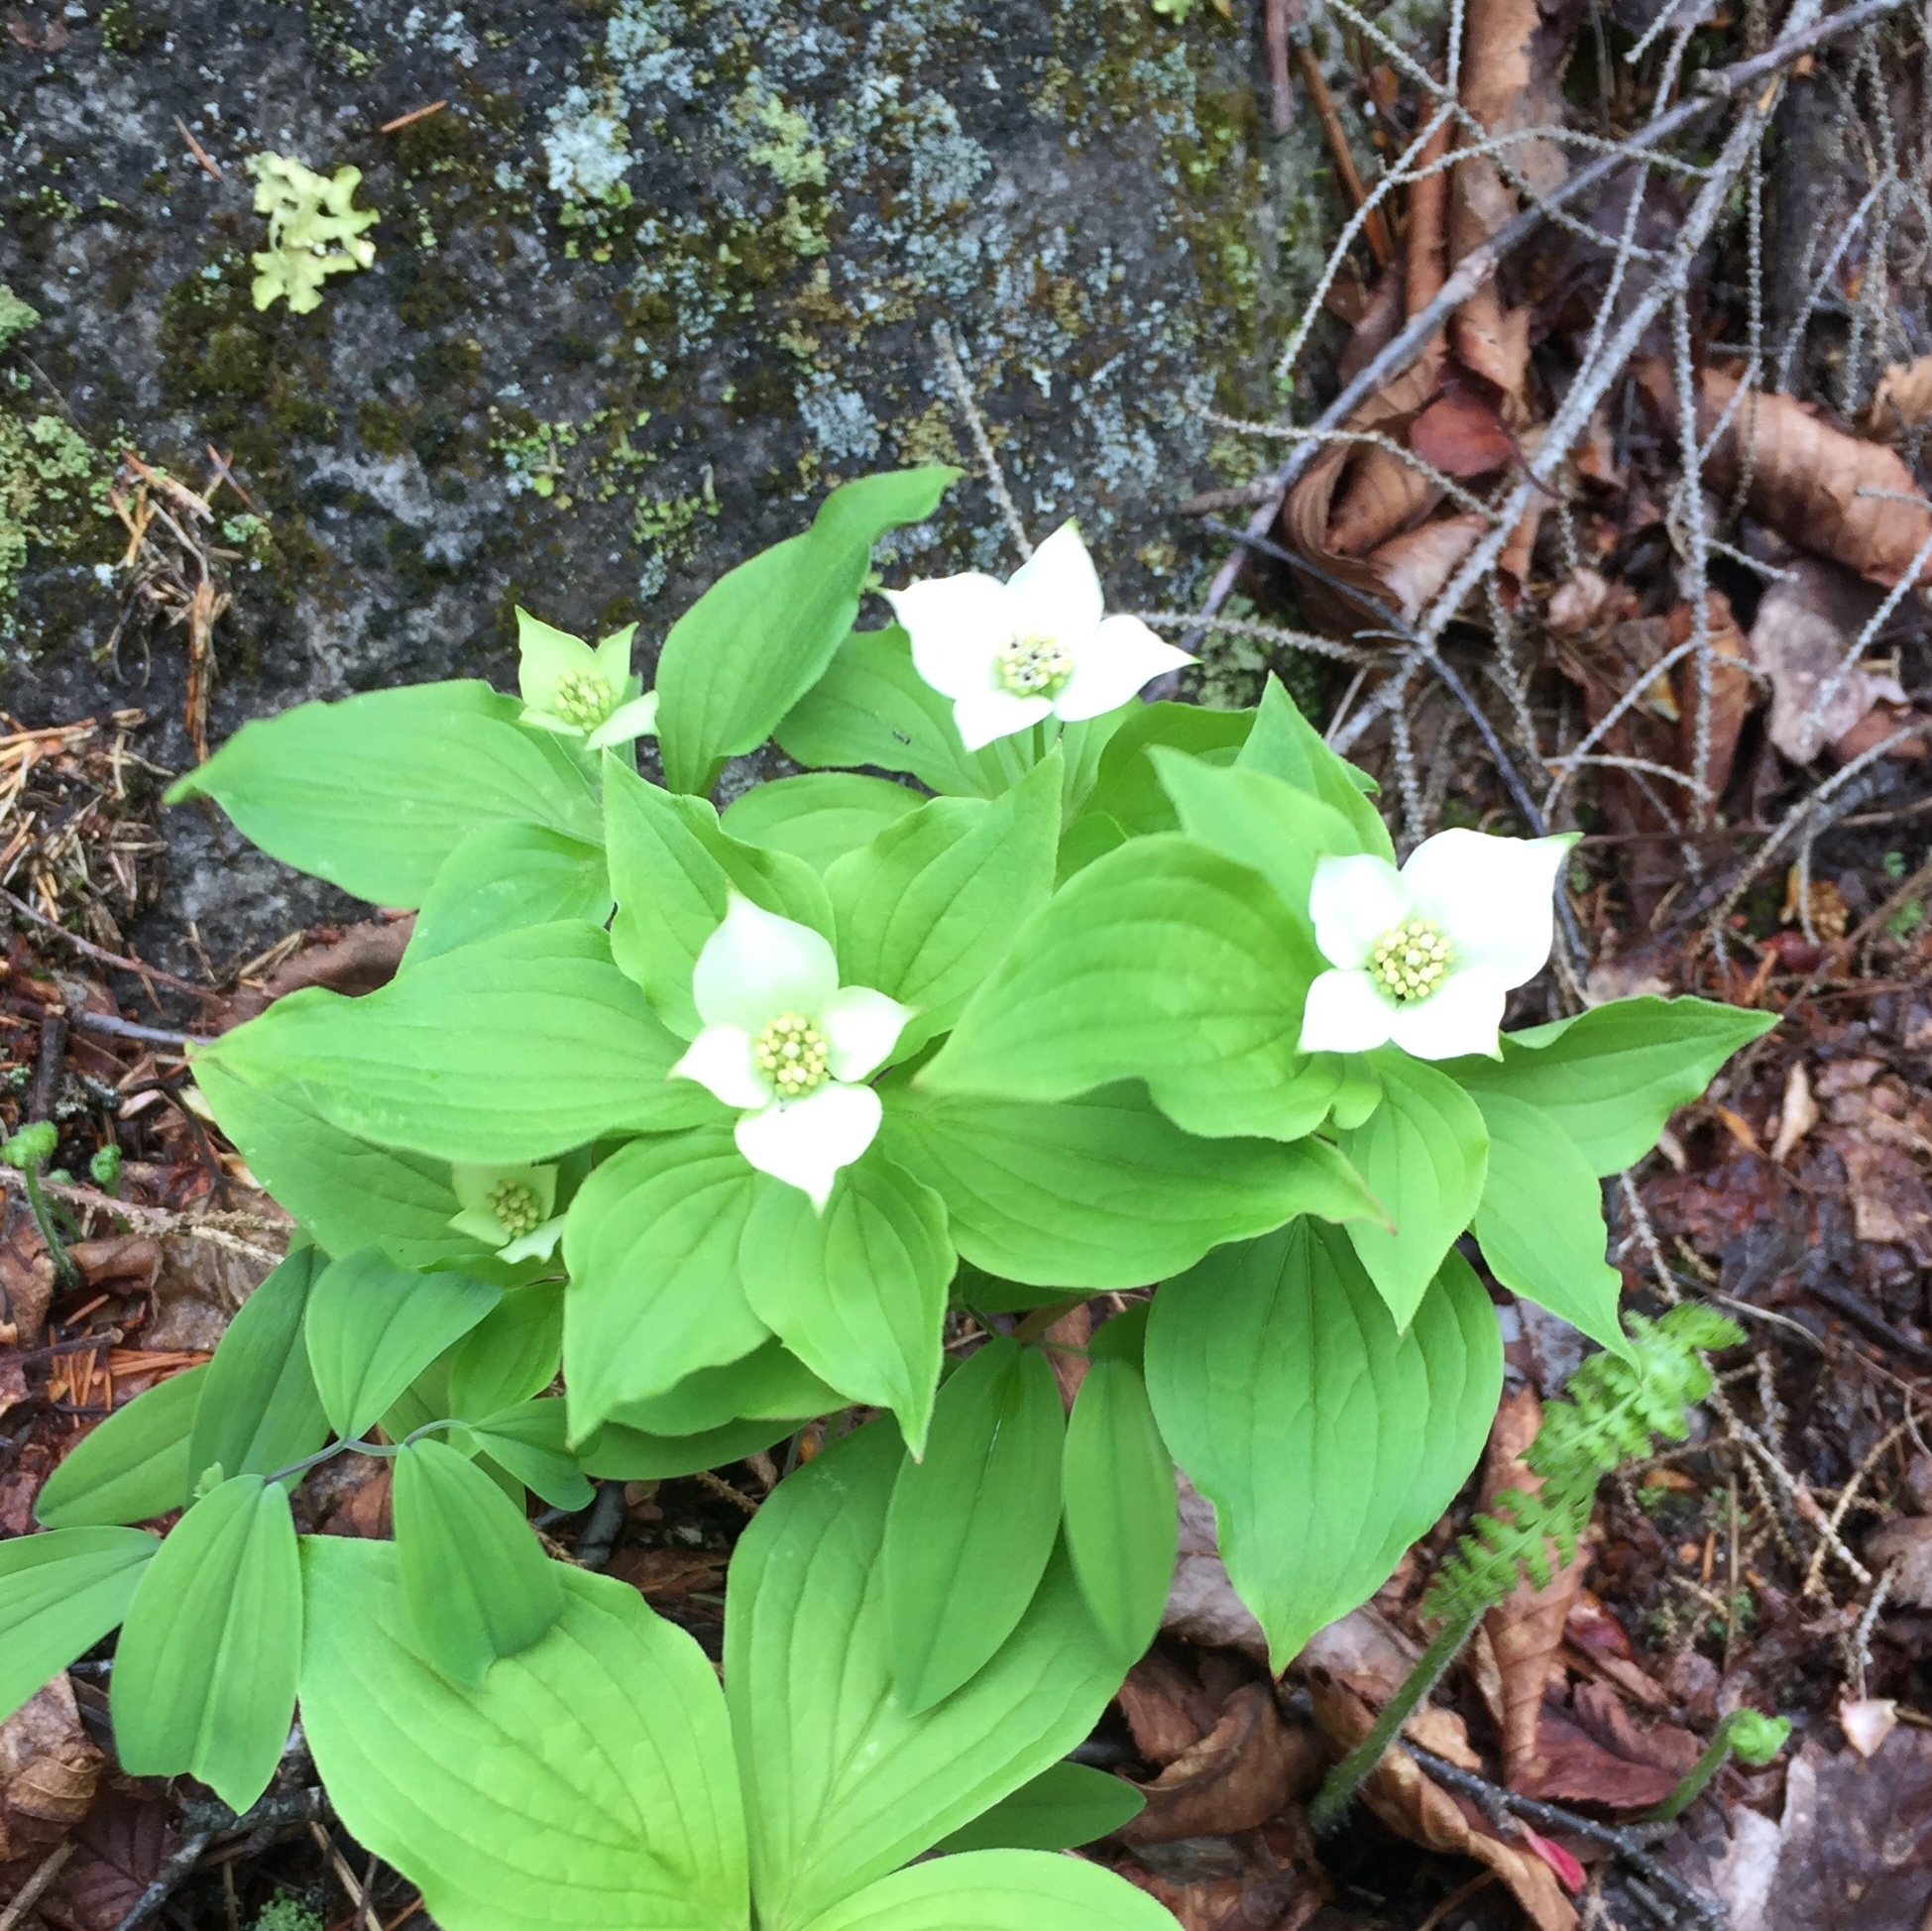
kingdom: Plantae
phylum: Tracheophyta
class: Magnoliopsida
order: Cornales
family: Cornaceae
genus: Cornus
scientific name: Cornus canadensis
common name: Creeping dogwood
